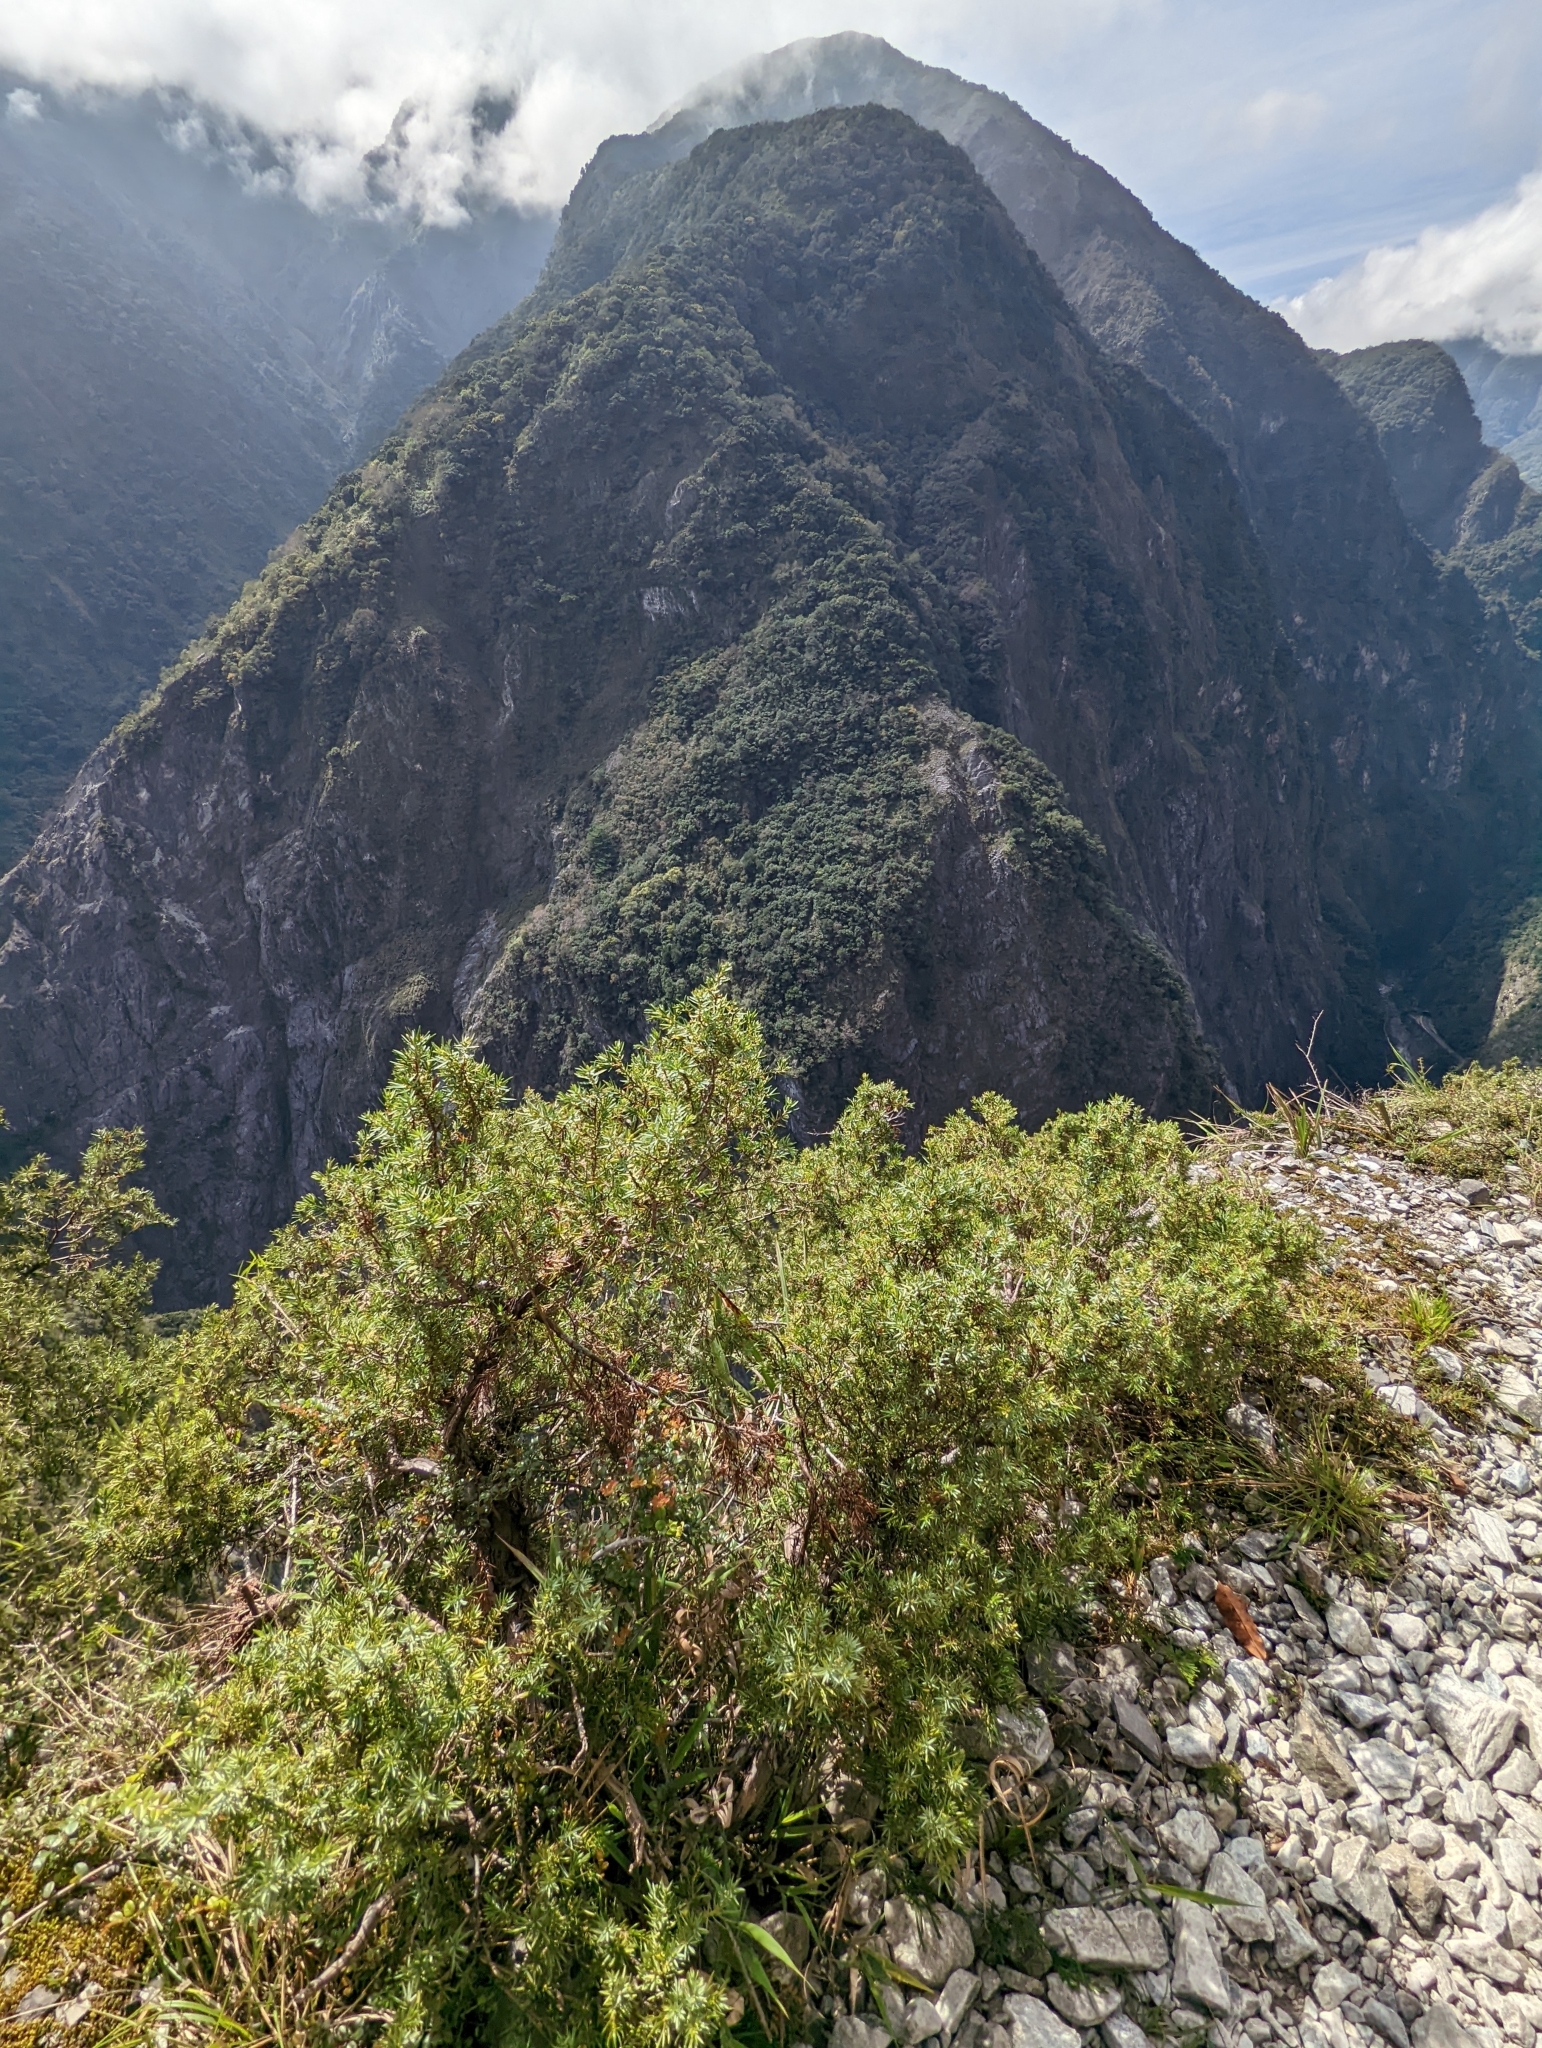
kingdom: Plantae
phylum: Tracheophyta
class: Pinopsida
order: Pinales
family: Cupressaceae
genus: Juniperus
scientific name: Juniperus formosana
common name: Formosan juniper
